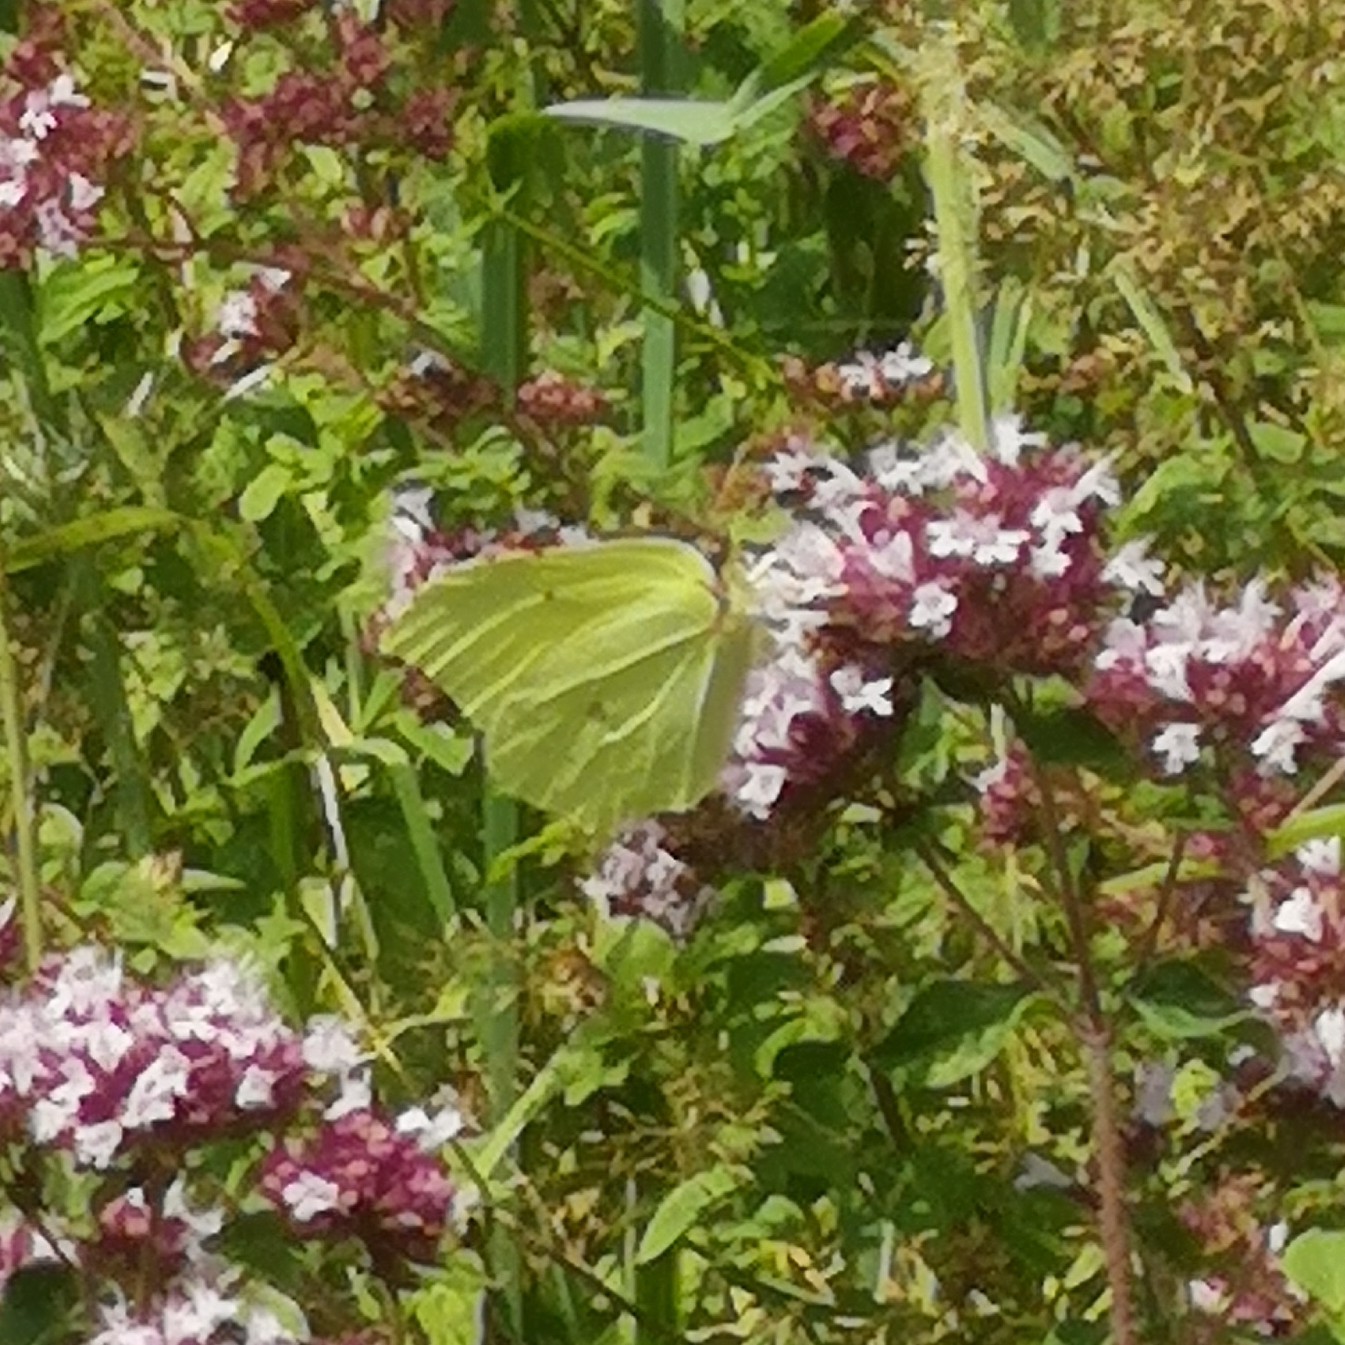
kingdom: Animalia
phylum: Arthropoda
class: Insecta
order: Lepidoptera
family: Pieridae
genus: Gonepteryx
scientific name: Gonepteryx rhamni
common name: Brimstone
